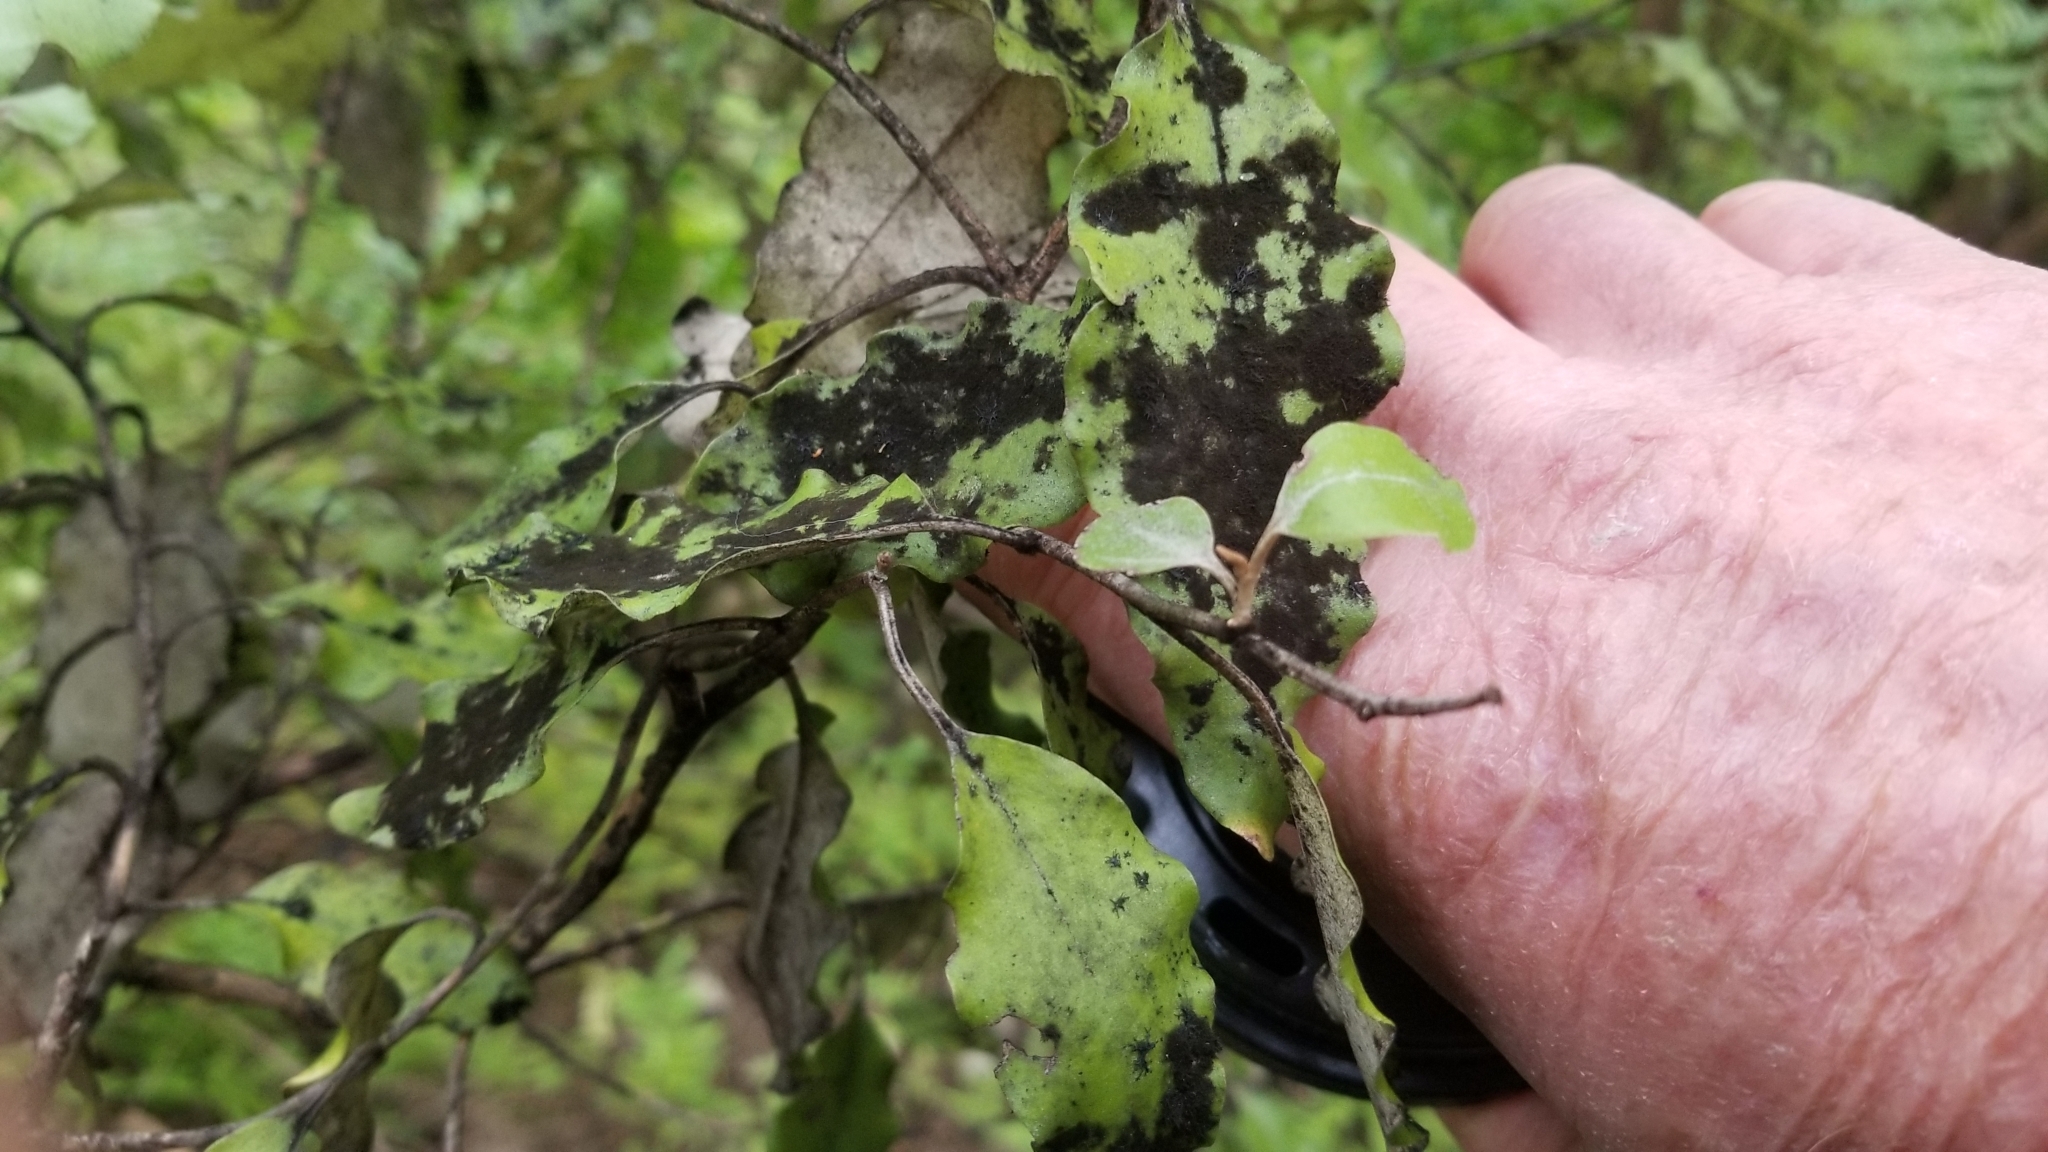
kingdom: Plantae
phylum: Tracheophyta
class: Magnoliopsida
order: Asterales
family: Asteraceae
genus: Olearia
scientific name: Olearia paniculata
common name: Akiraho
